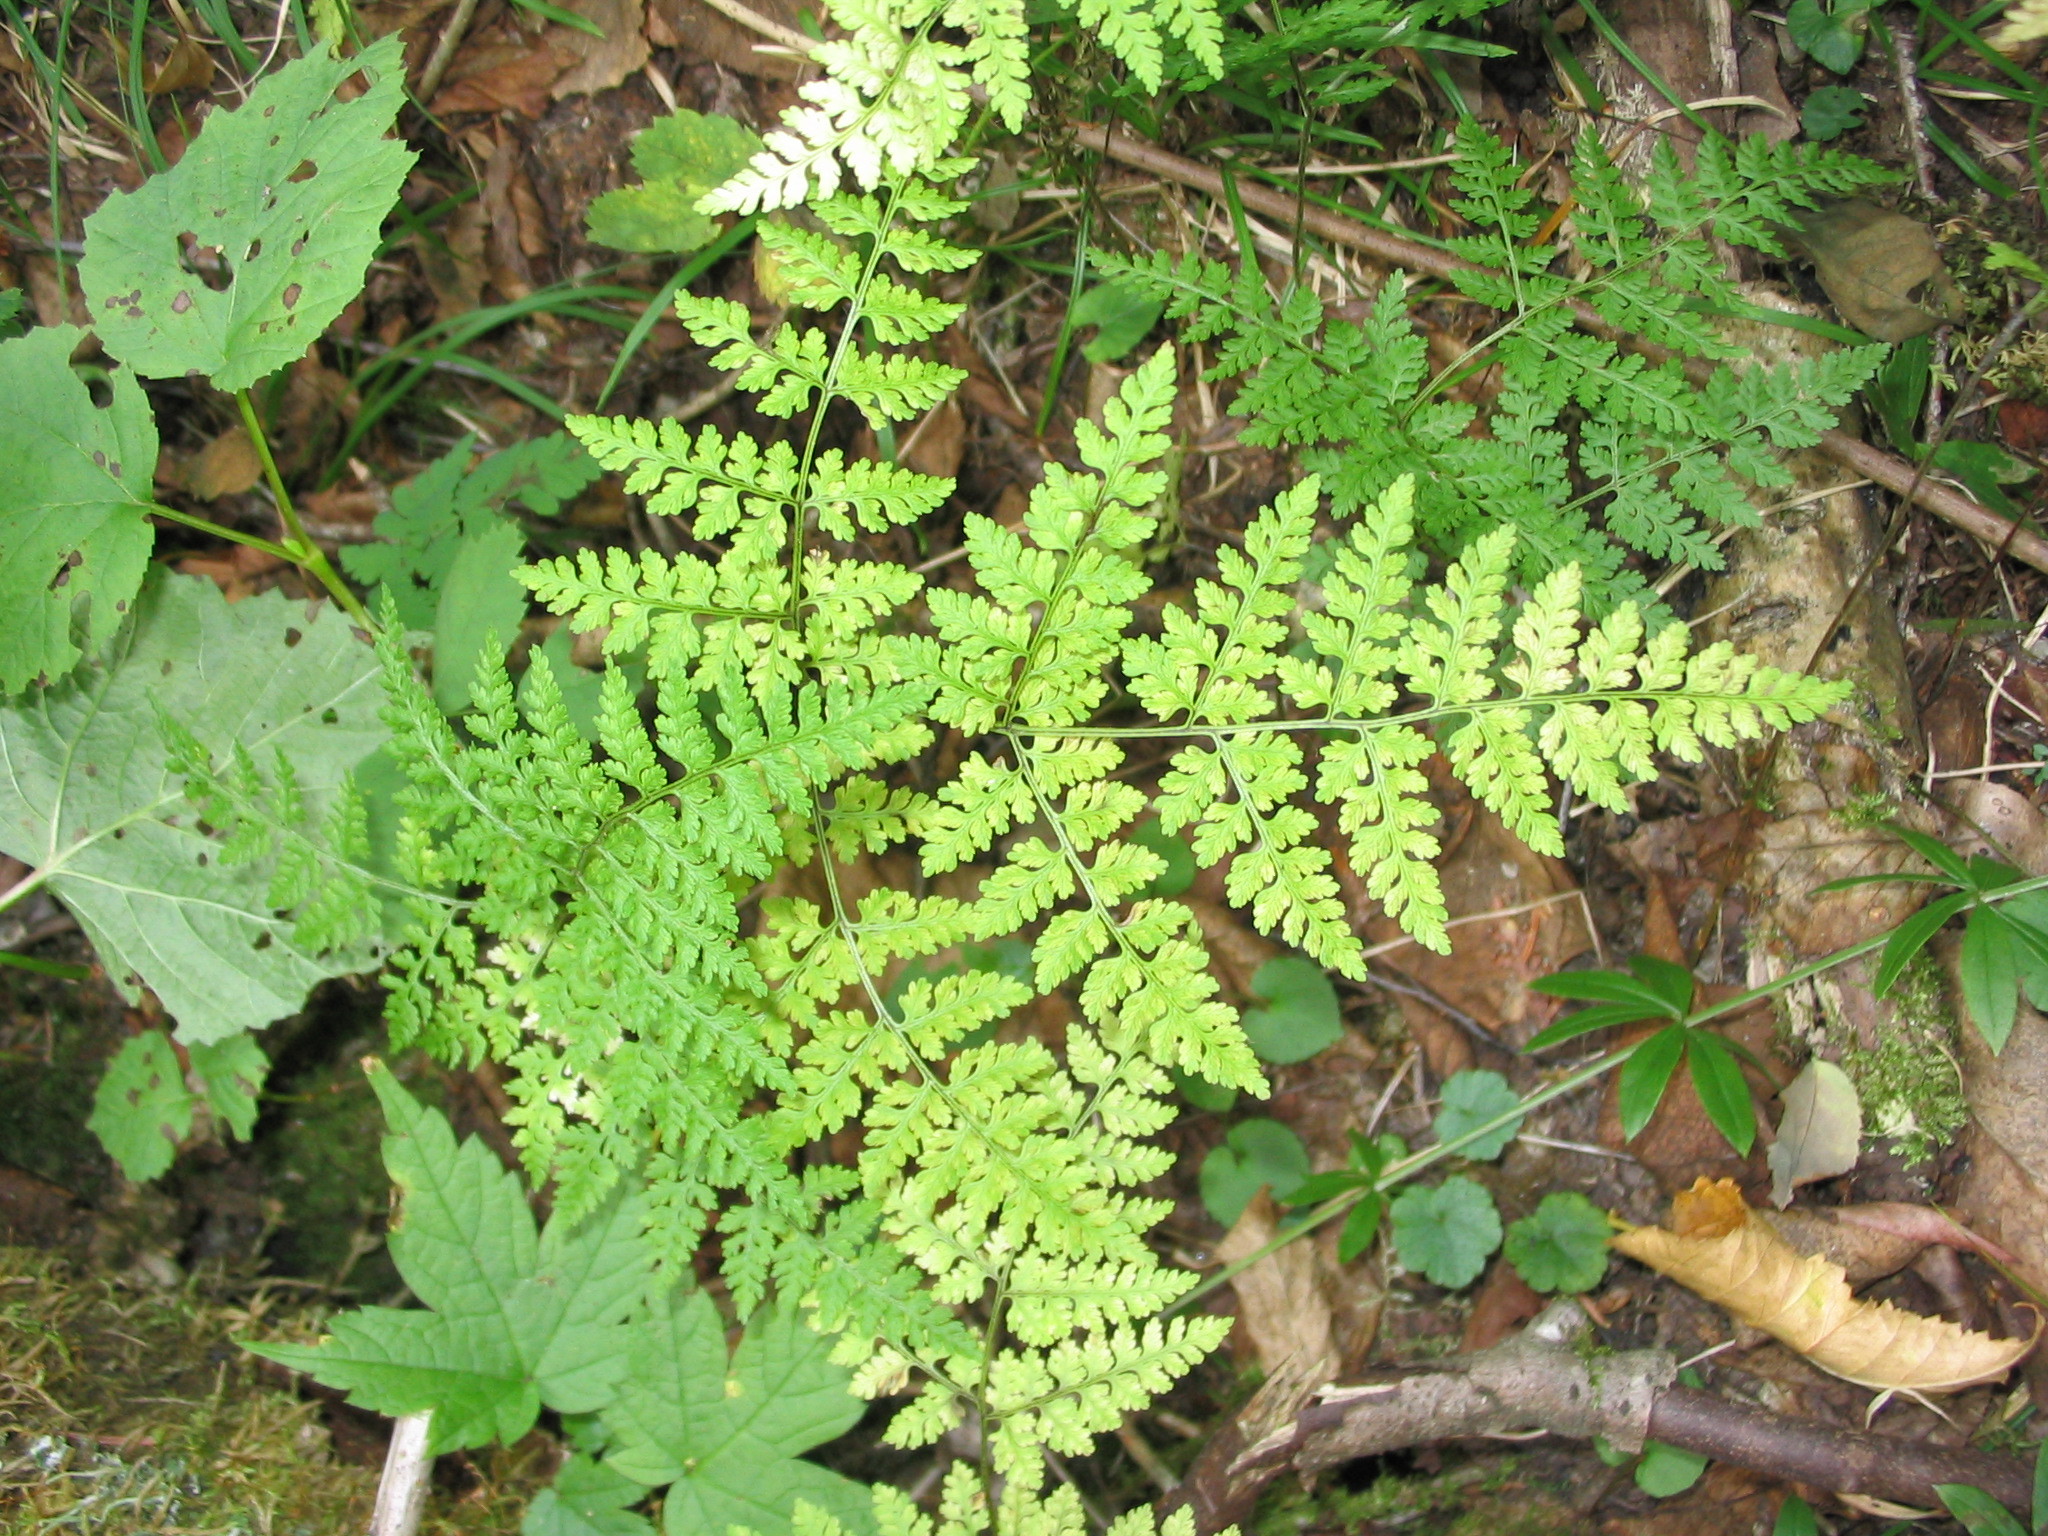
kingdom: Plantae
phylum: Tracheophyta
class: Polypodiopsida
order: Polypodiales
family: Cystopteridaceae
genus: Cystopteris
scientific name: Cystopteris montana
